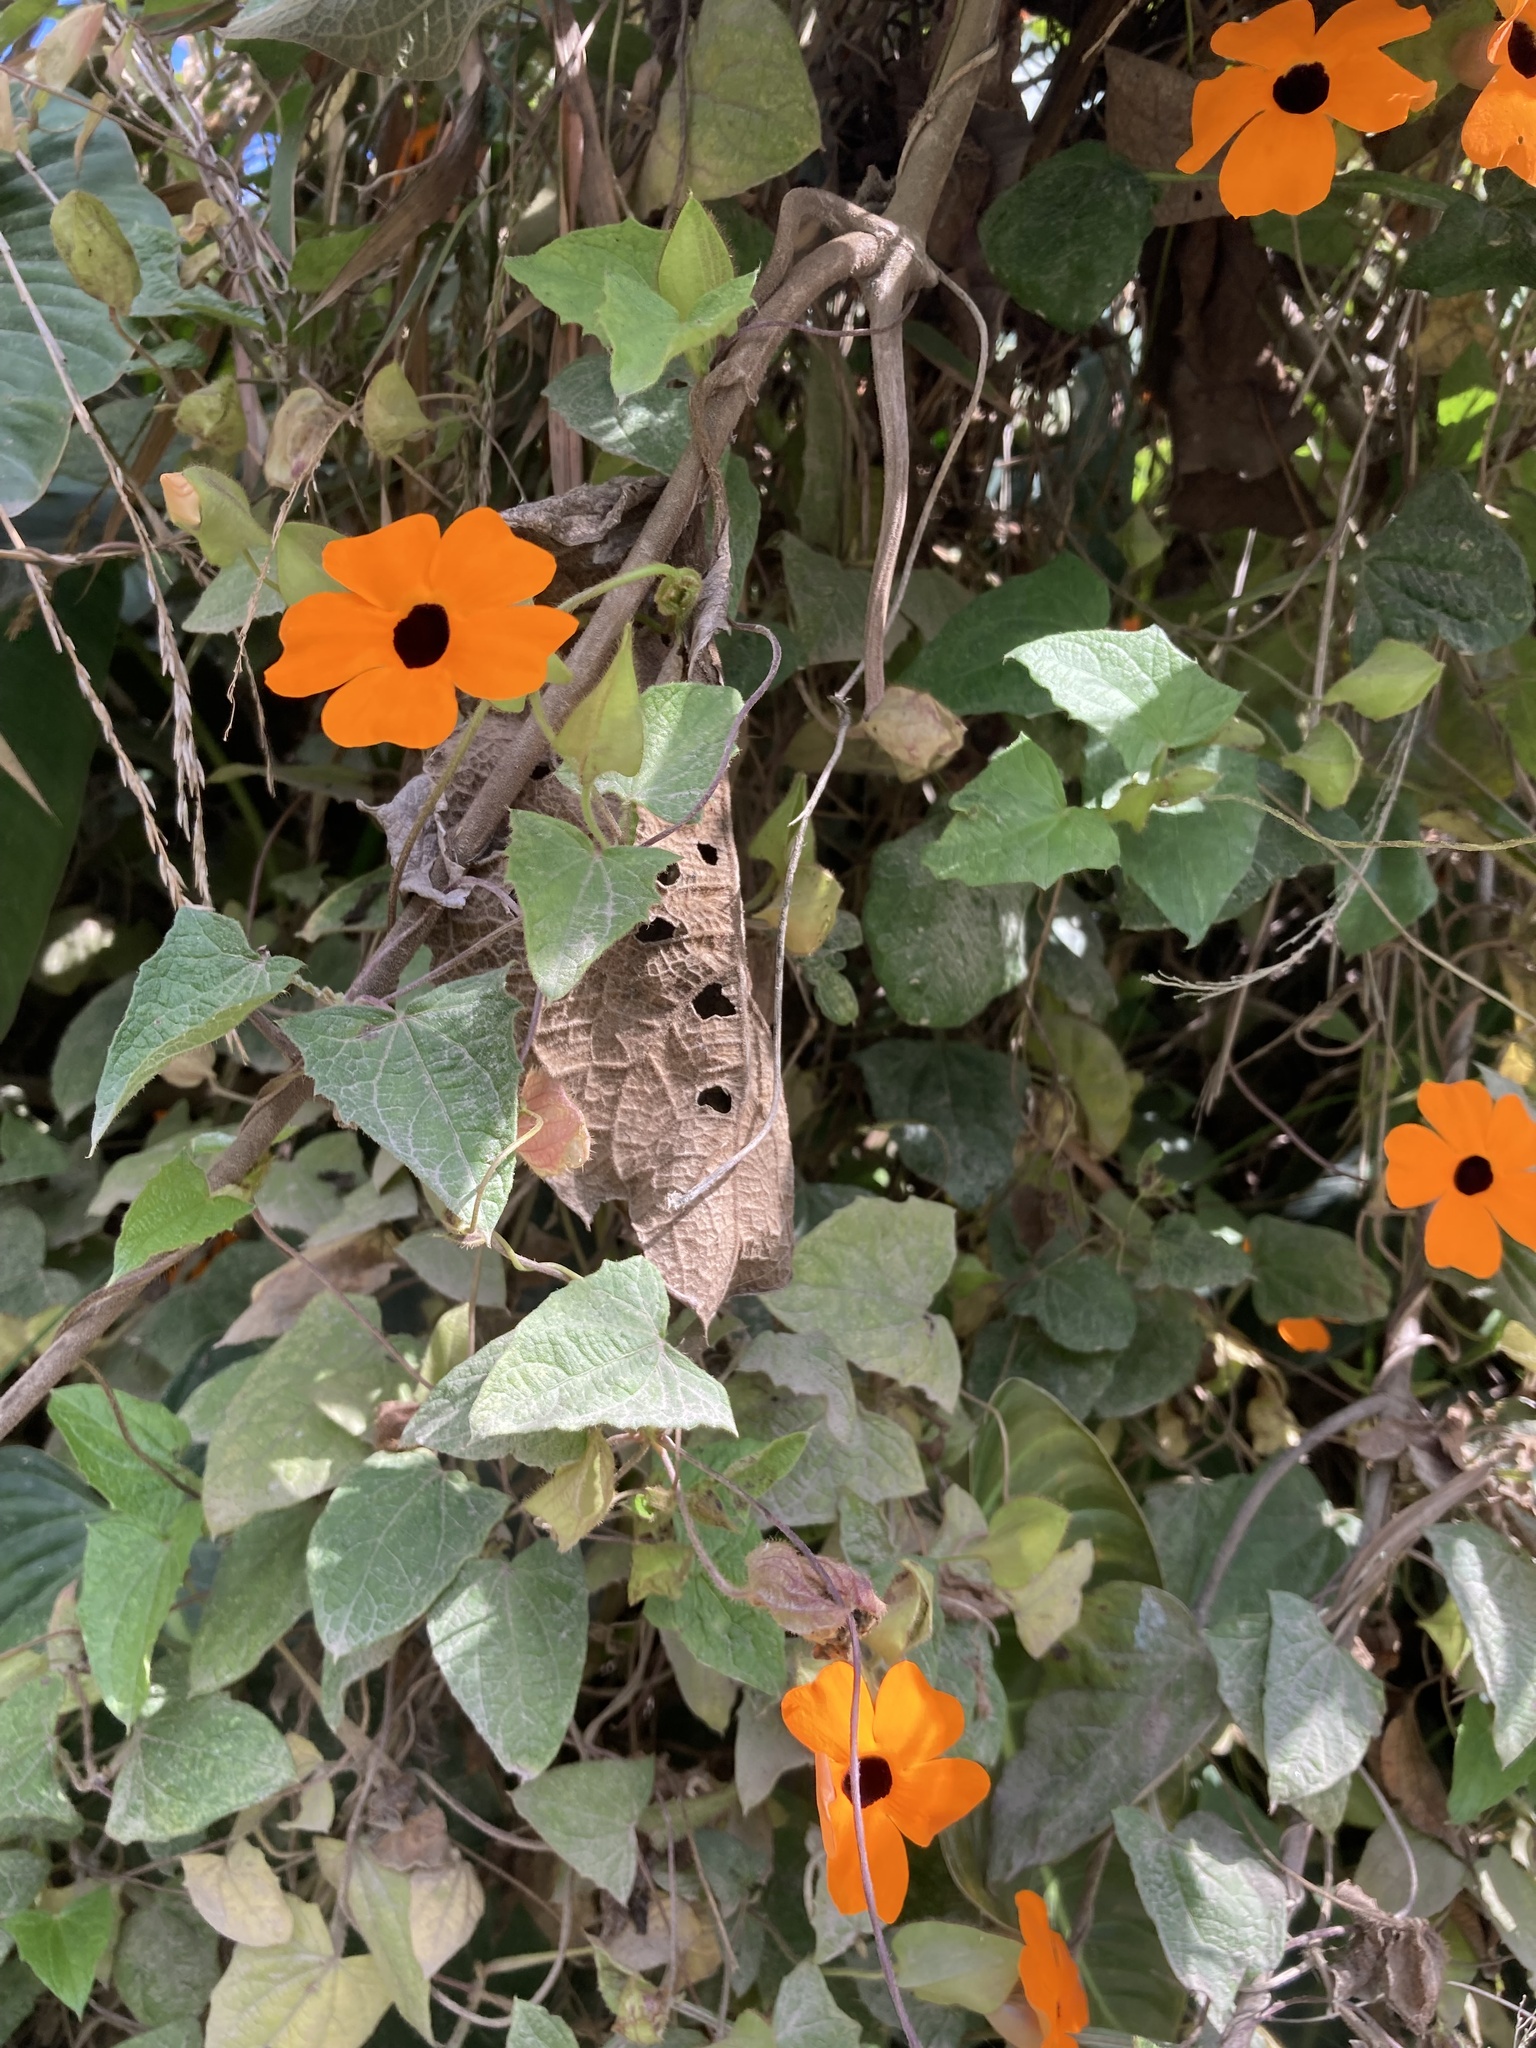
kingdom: Plantae
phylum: Tracheophyta
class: Magnoliopsida
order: Lamiales
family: Acanthaceae
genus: Thunbergia
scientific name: Thunbergia alata
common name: Blackeyed susan vine
